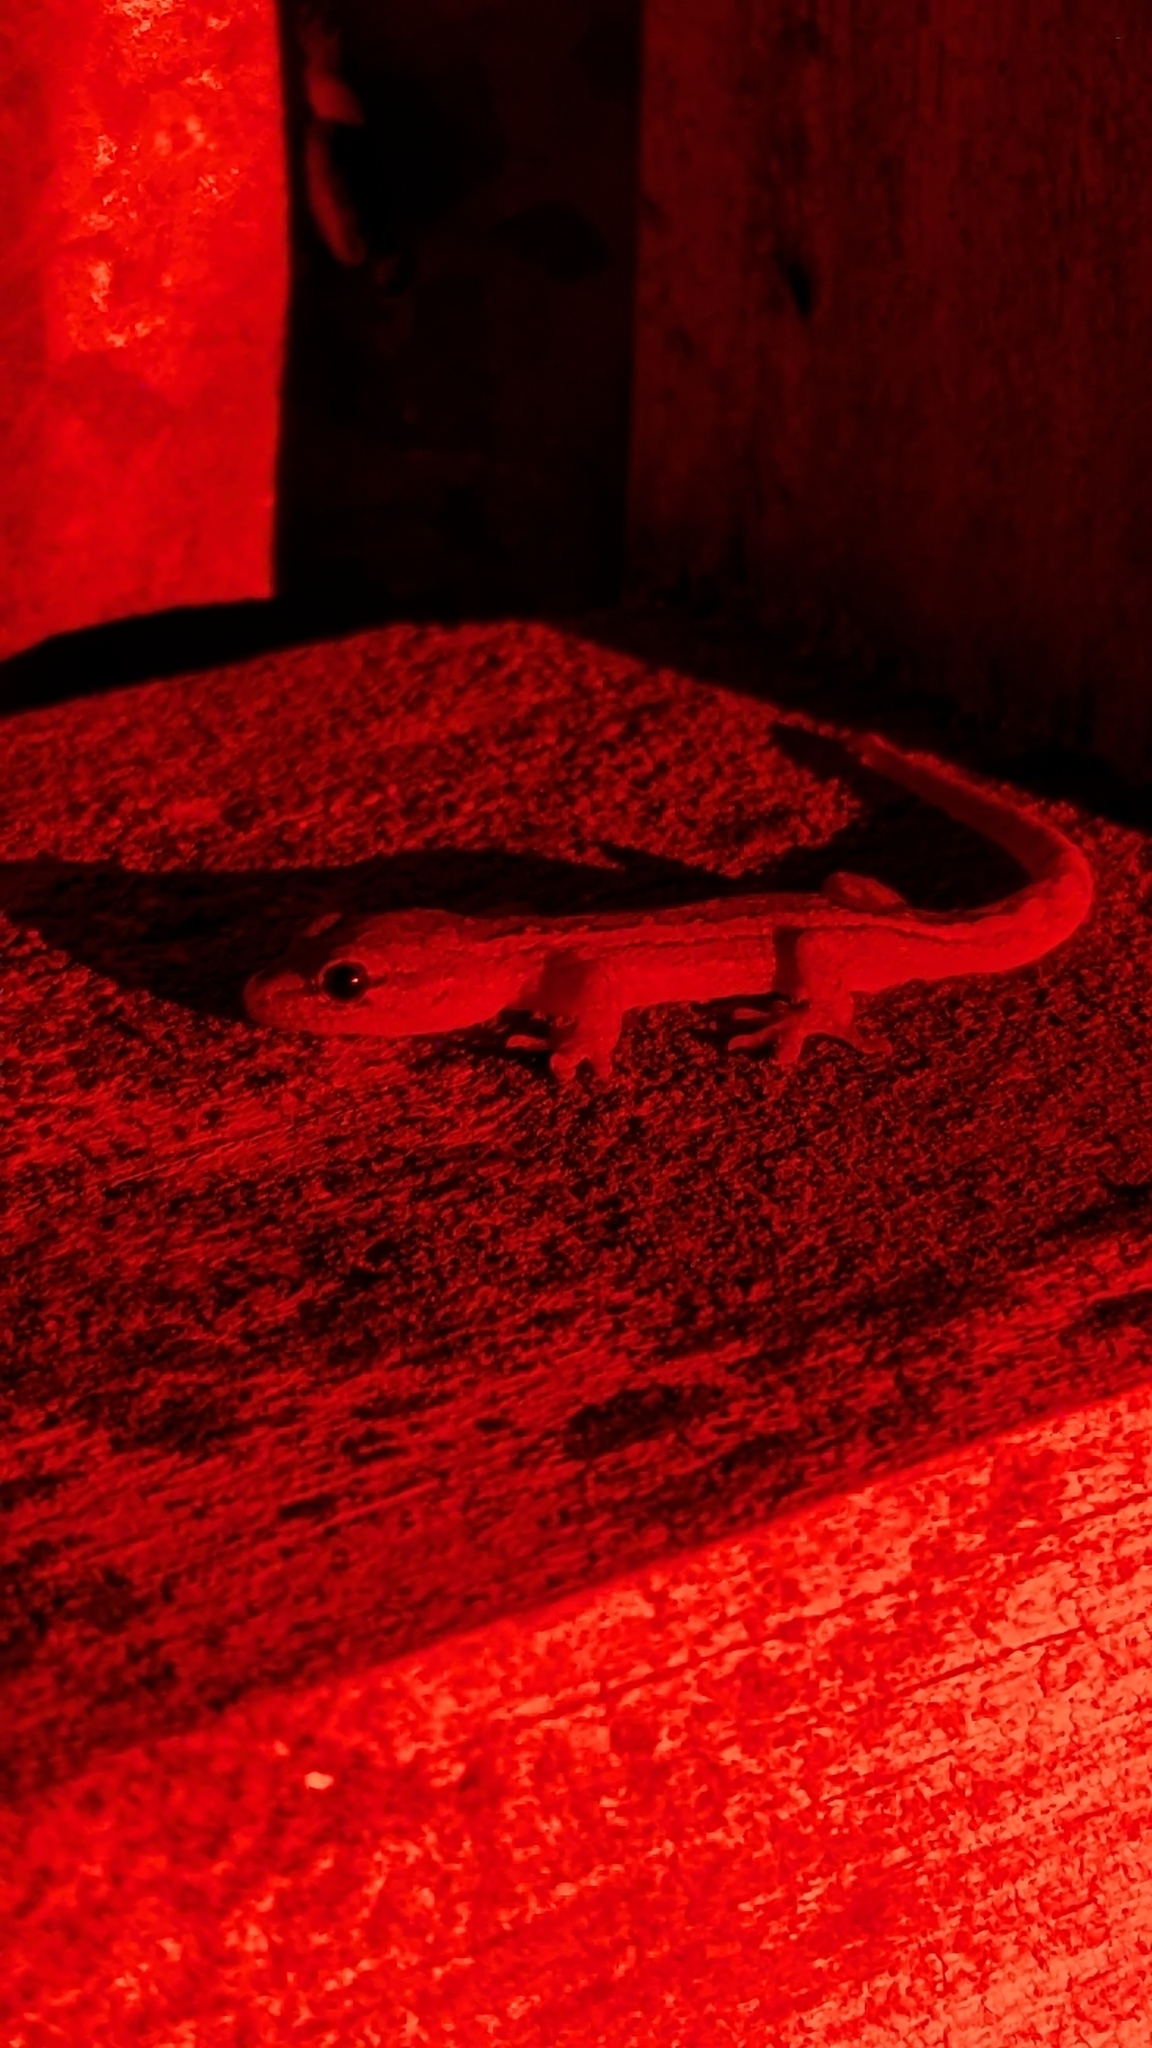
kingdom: Animalia
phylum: Chordata
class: Squamata
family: Diplodactylidae
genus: Woodworthia
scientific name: Woodworthia maculata
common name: Raukawa gecko
